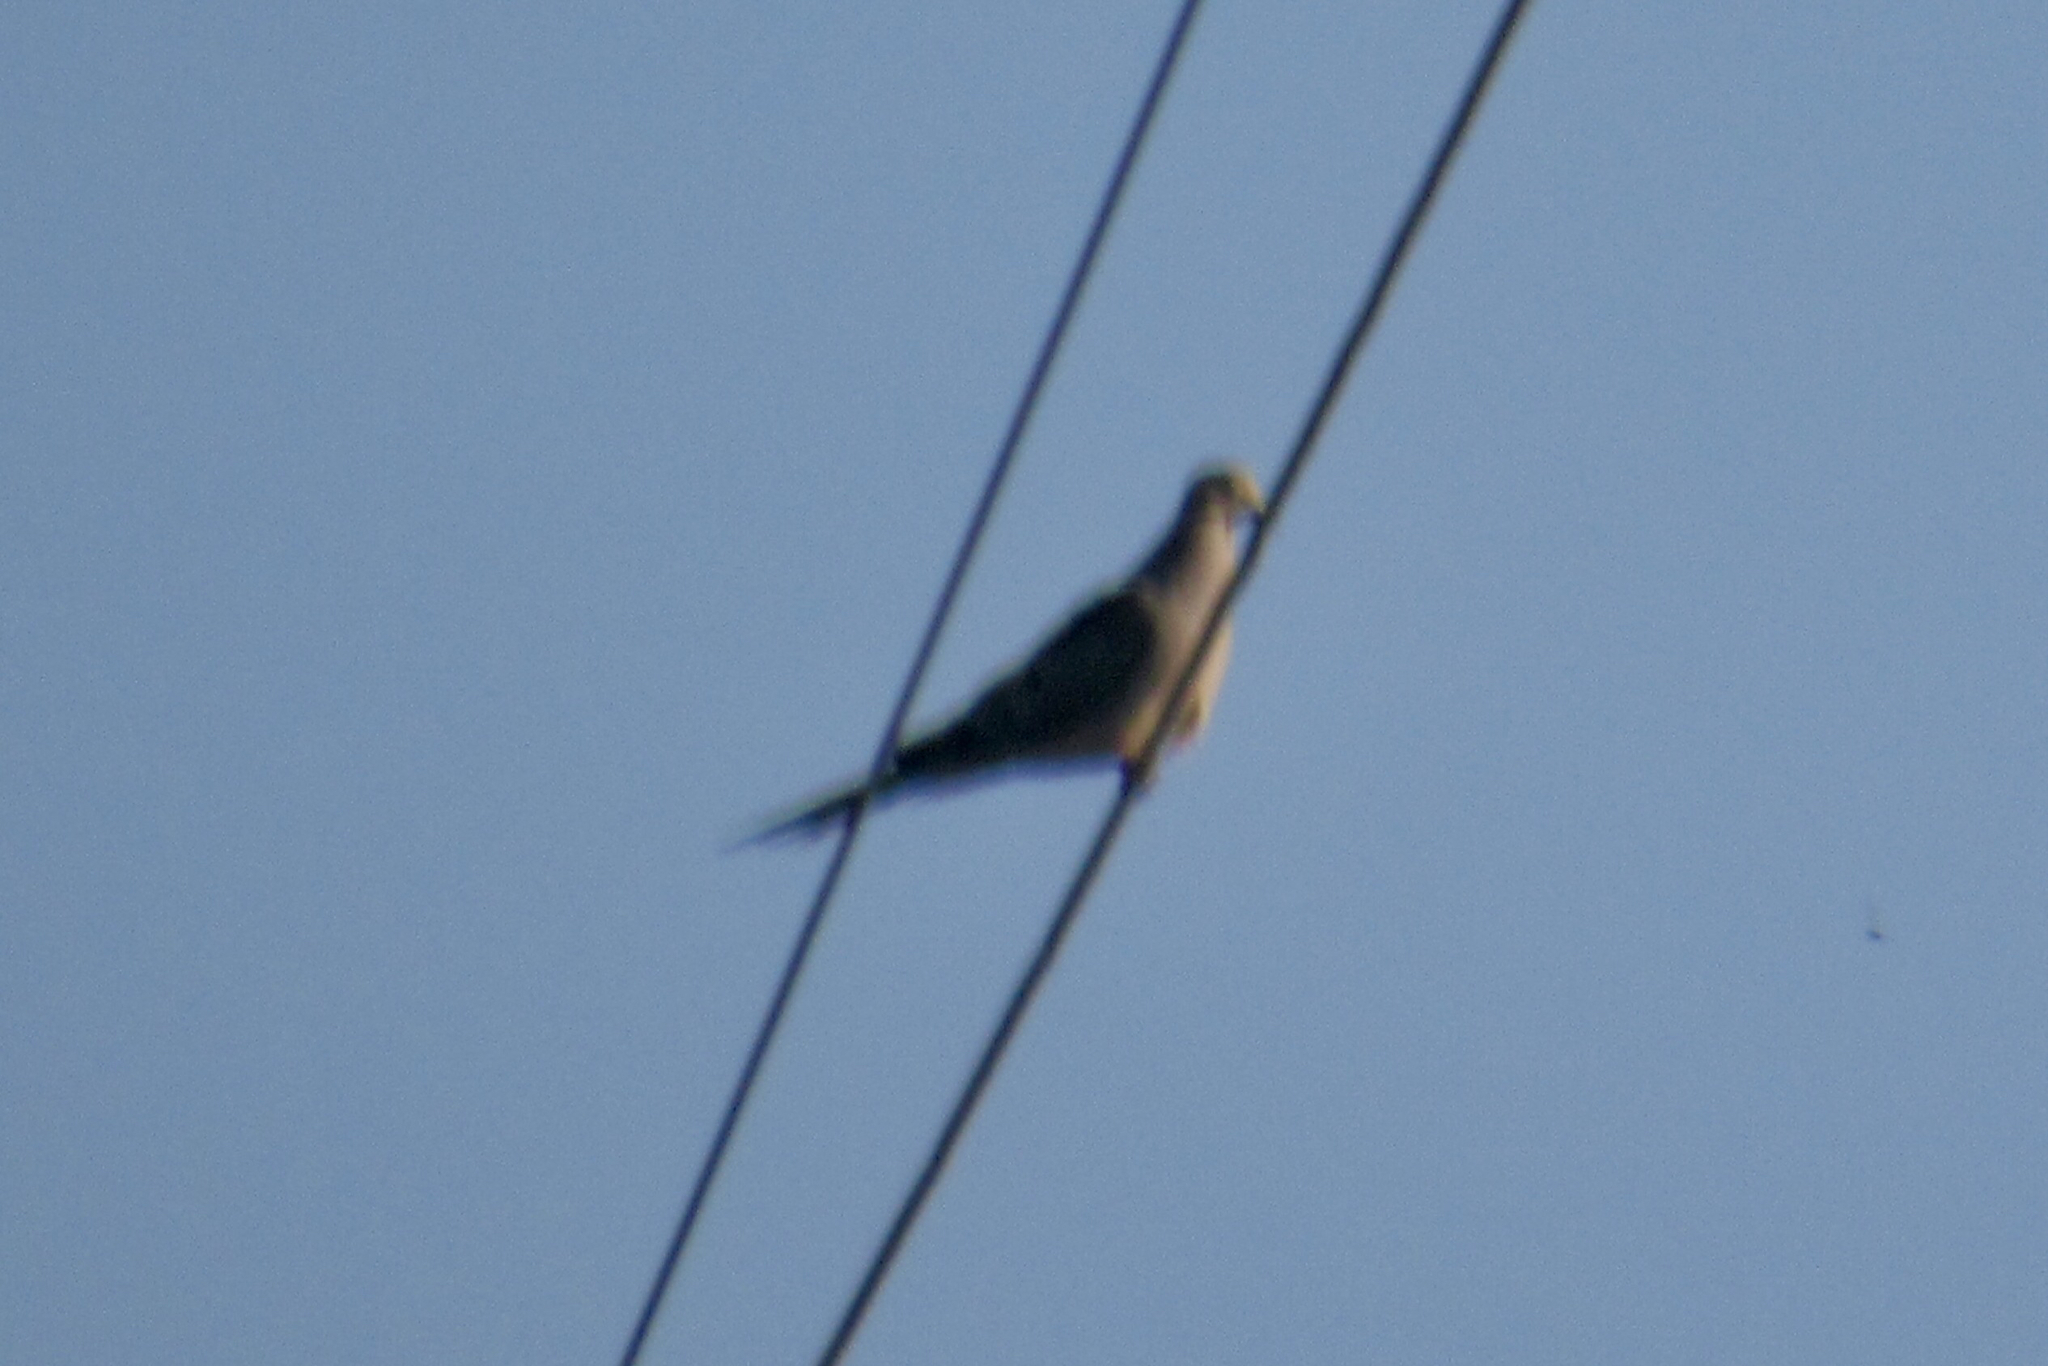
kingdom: Animalia
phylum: Chordata
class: Aves
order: Columbiformes
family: Columbidae
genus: Zenaida
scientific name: Zenaida macroura
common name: Mourning dove
